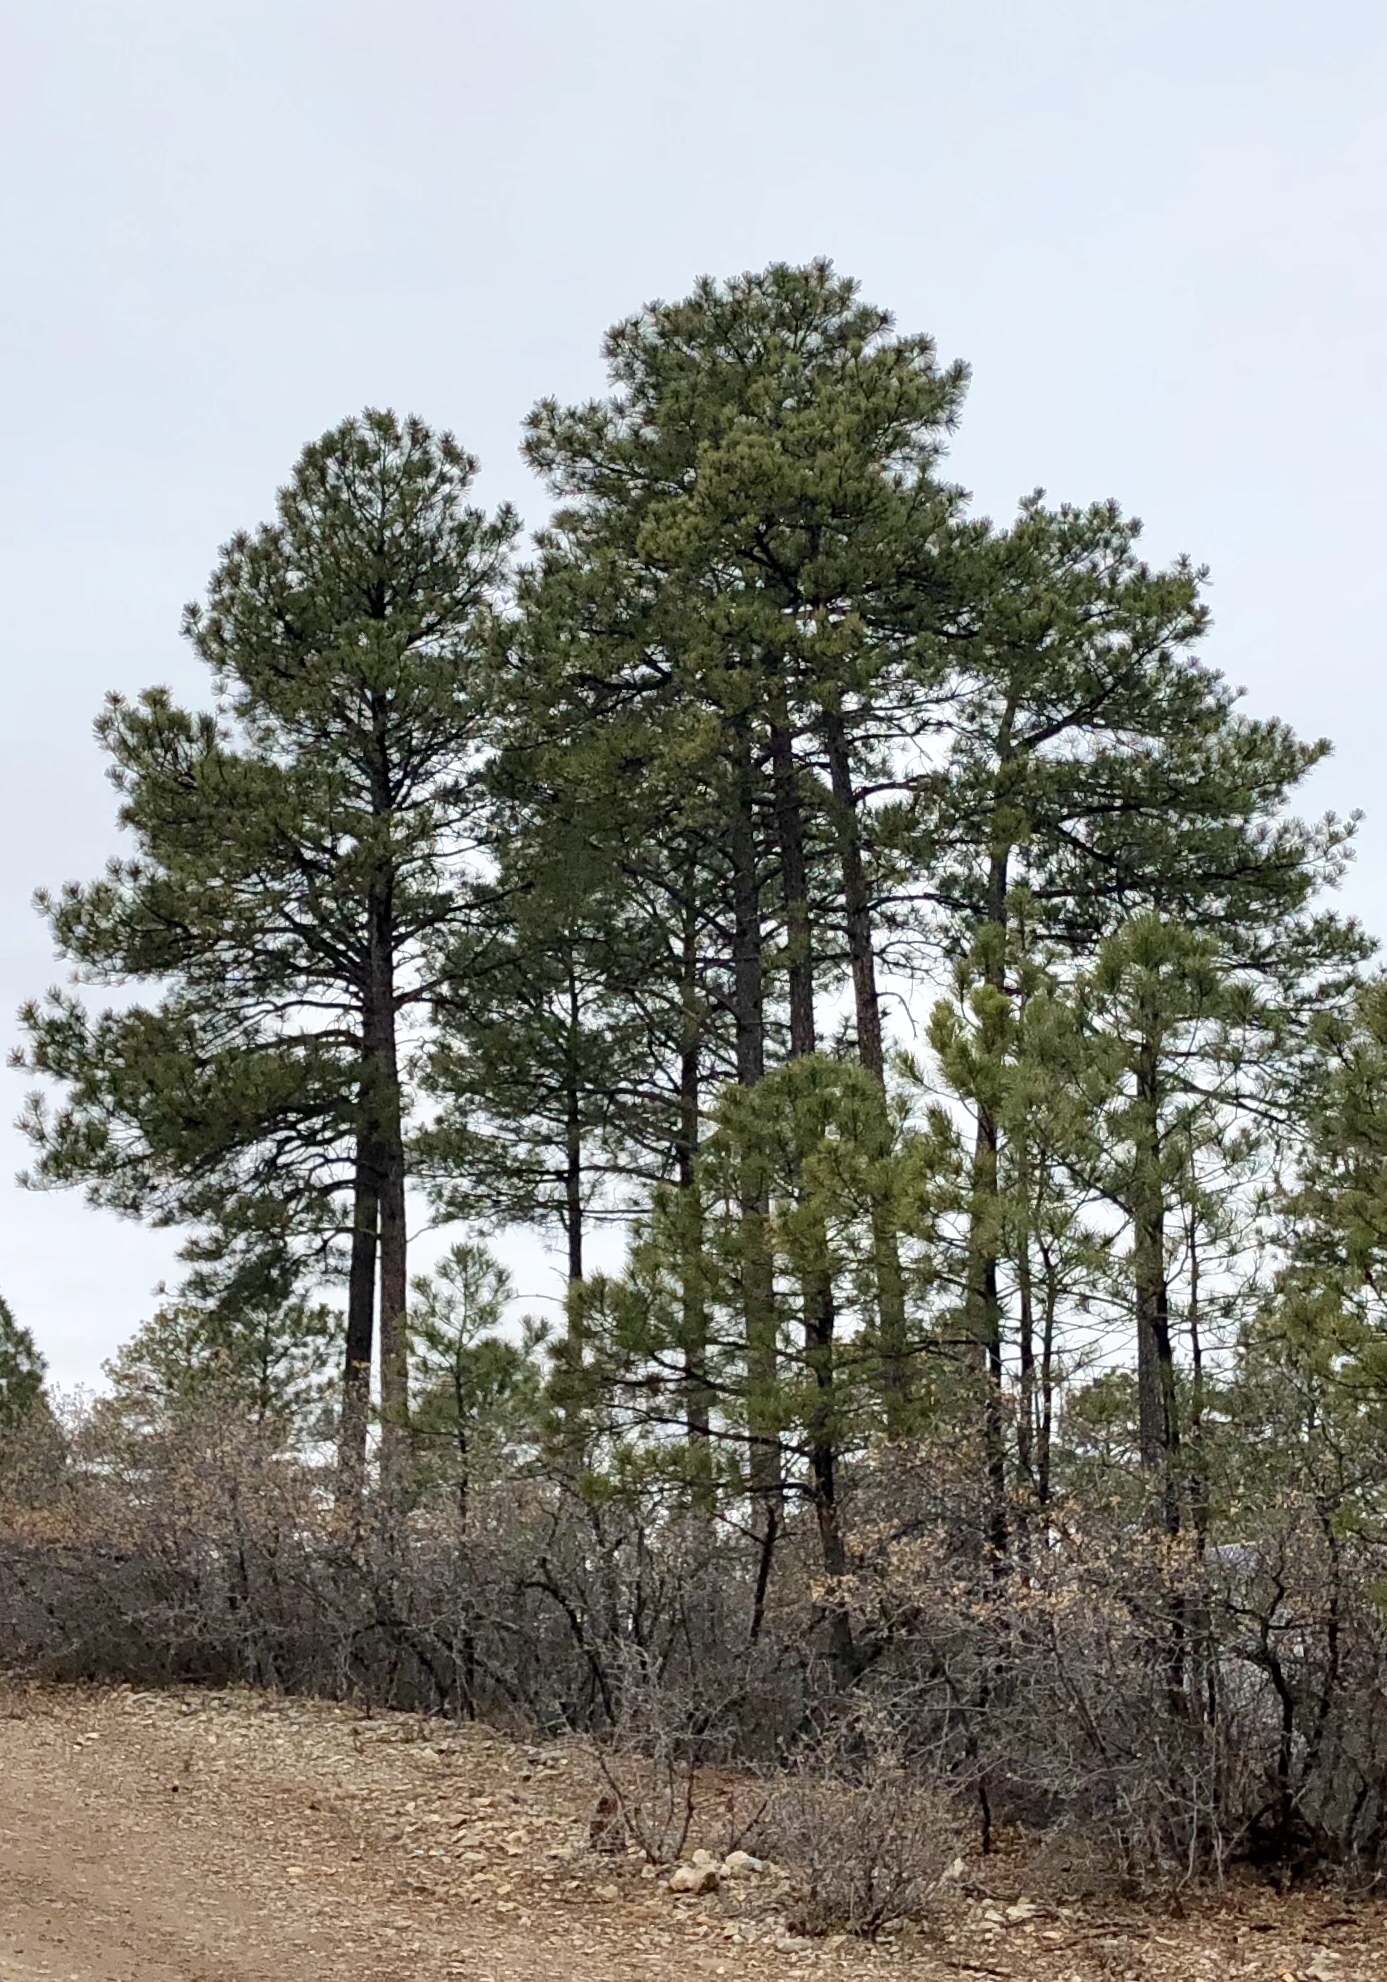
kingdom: Plantae
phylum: Tracheophyta
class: Pinopsida
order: Pinales
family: Pinaceae
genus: Pinus
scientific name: Pinus ponderosa
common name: Western yellow-pine
